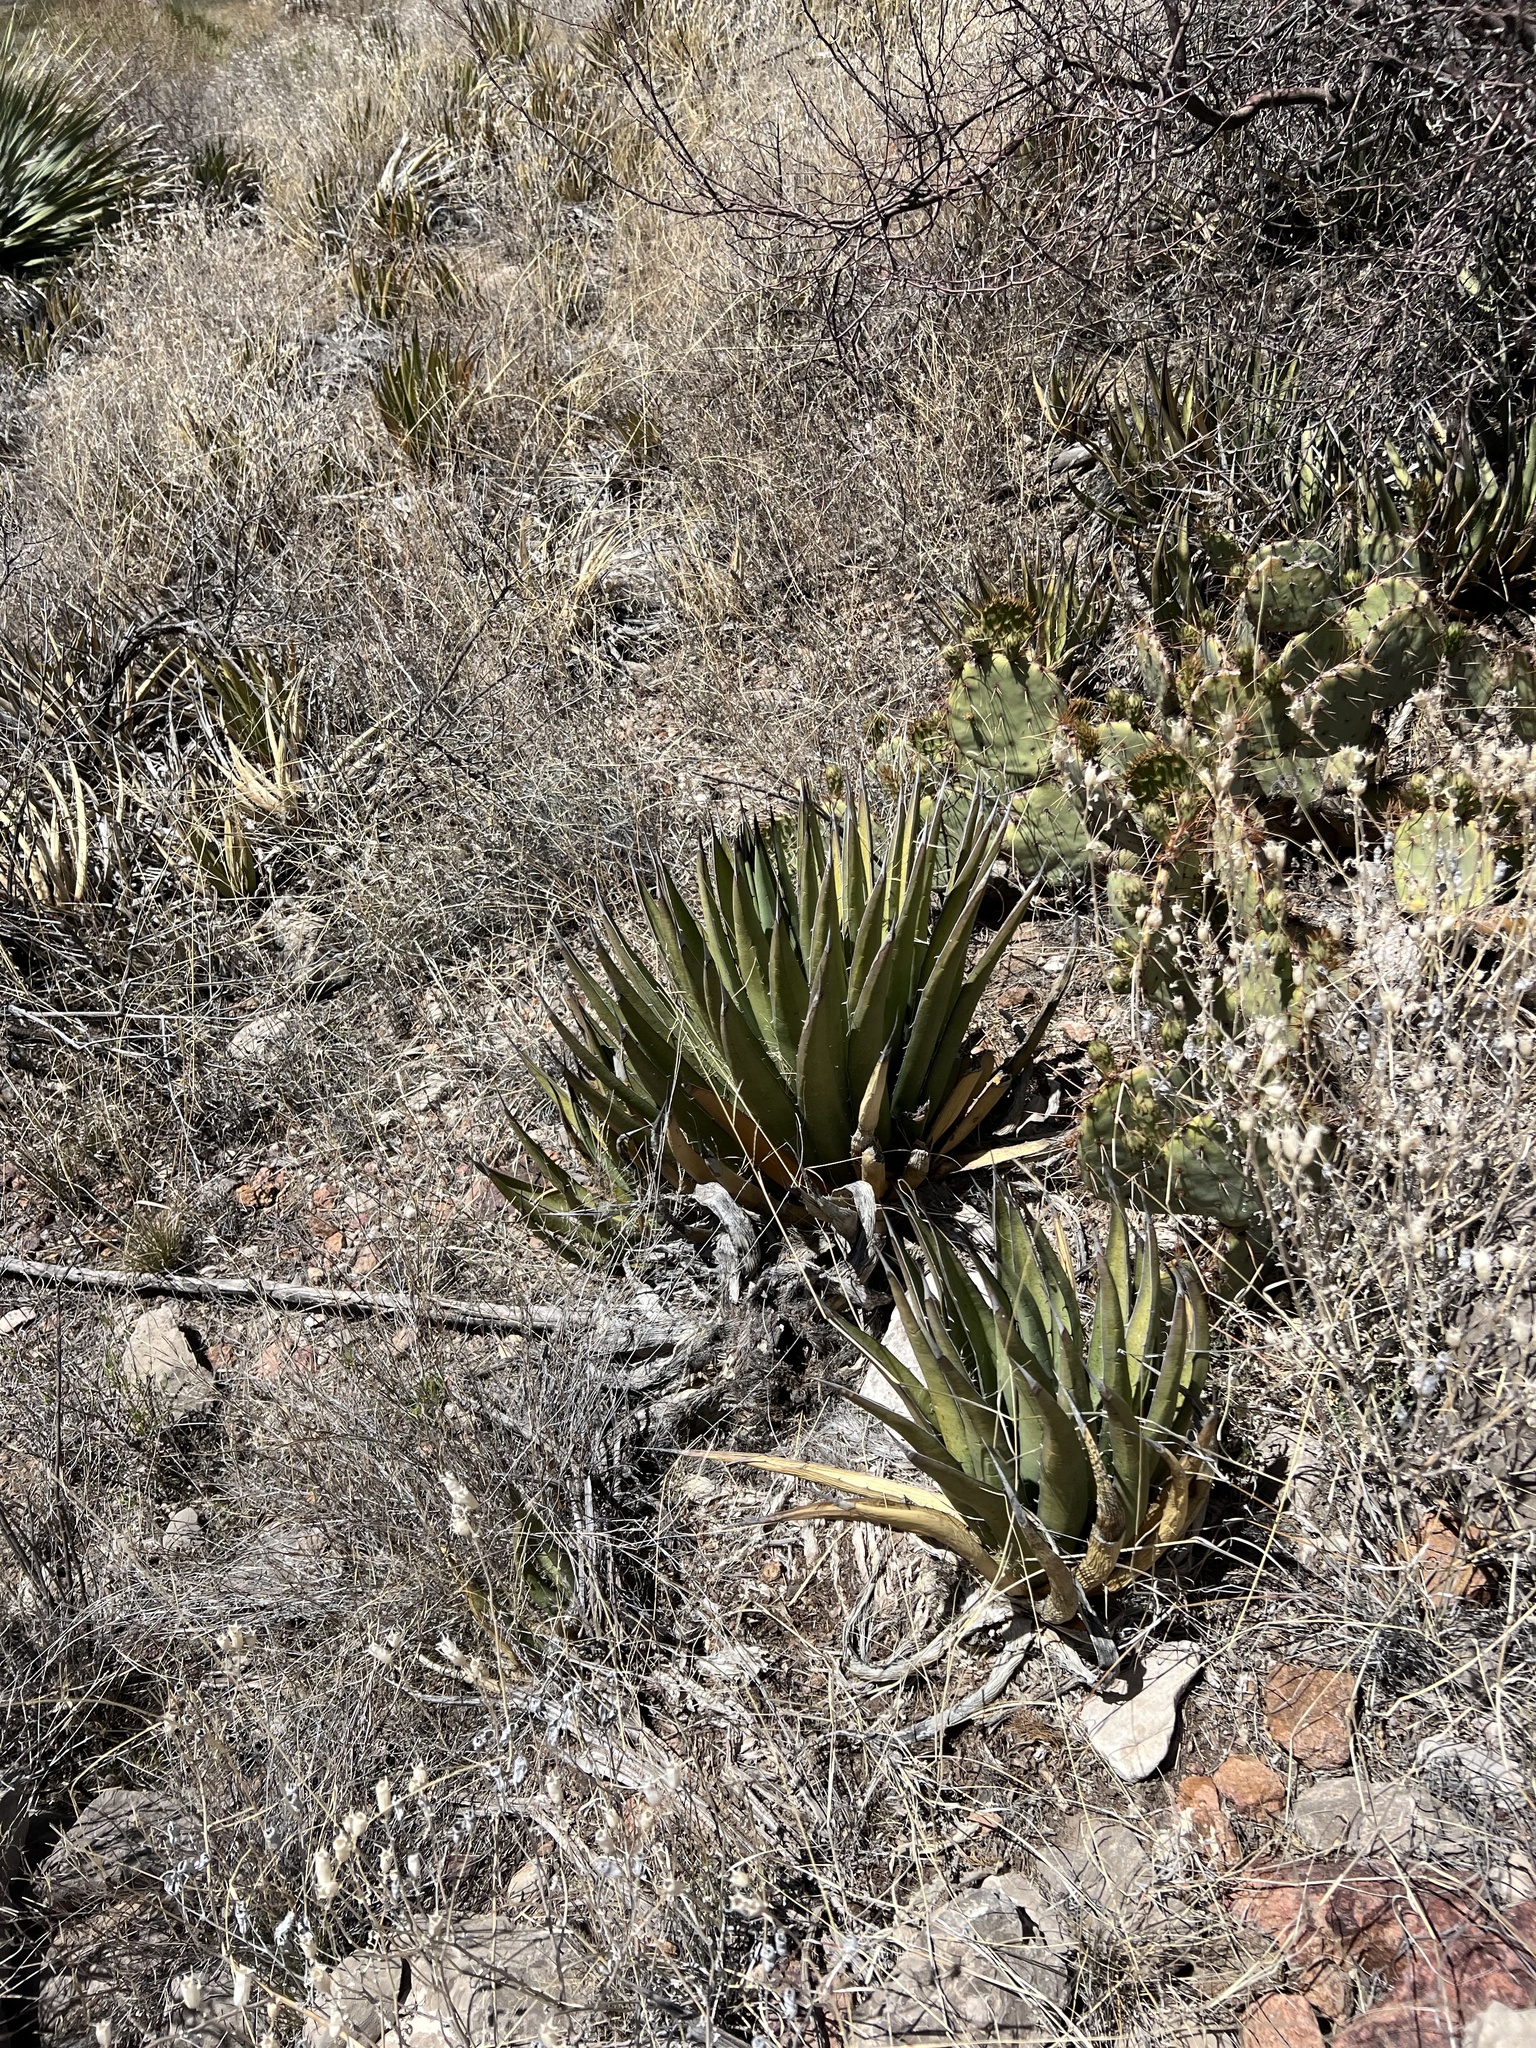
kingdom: Plantae
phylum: Tracheophyta
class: Liliopsida
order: Asparagales
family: Asparagaceae
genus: Agave
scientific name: Agave lechuguilla
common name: Lecheguilla agave
